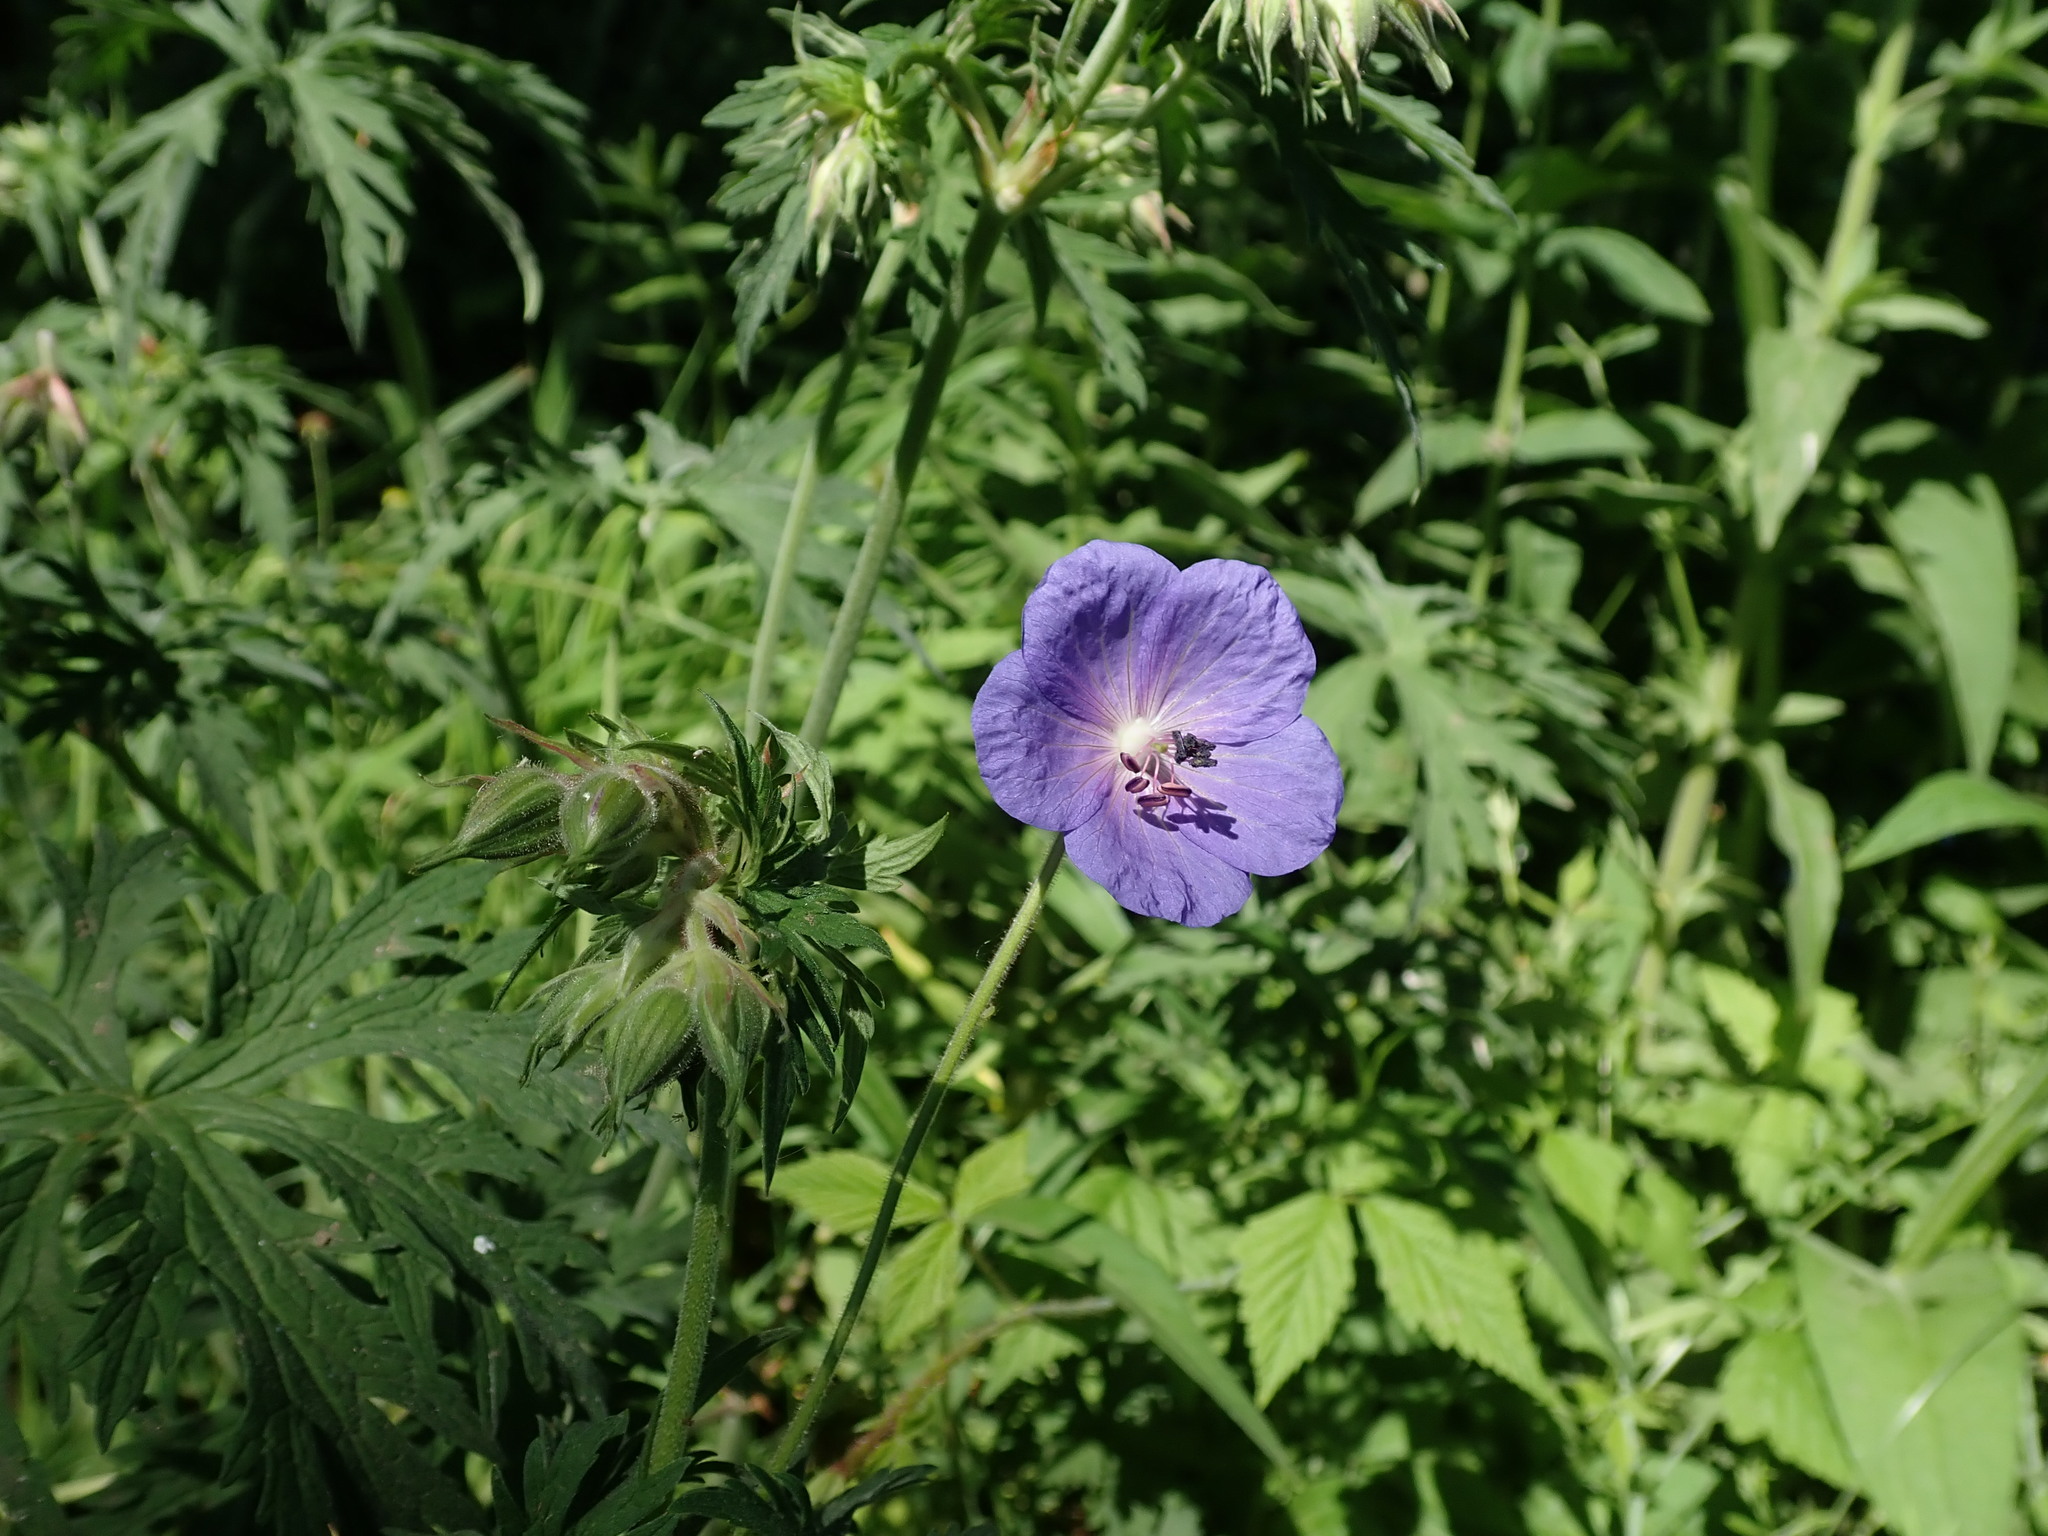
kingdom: Plantae
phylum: Tracheophyta
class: Magnoliopsida
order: Geraniales
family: Geraniaceae
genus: Geranium
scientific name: Geranium pratense
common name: Meadow crane's-bill
